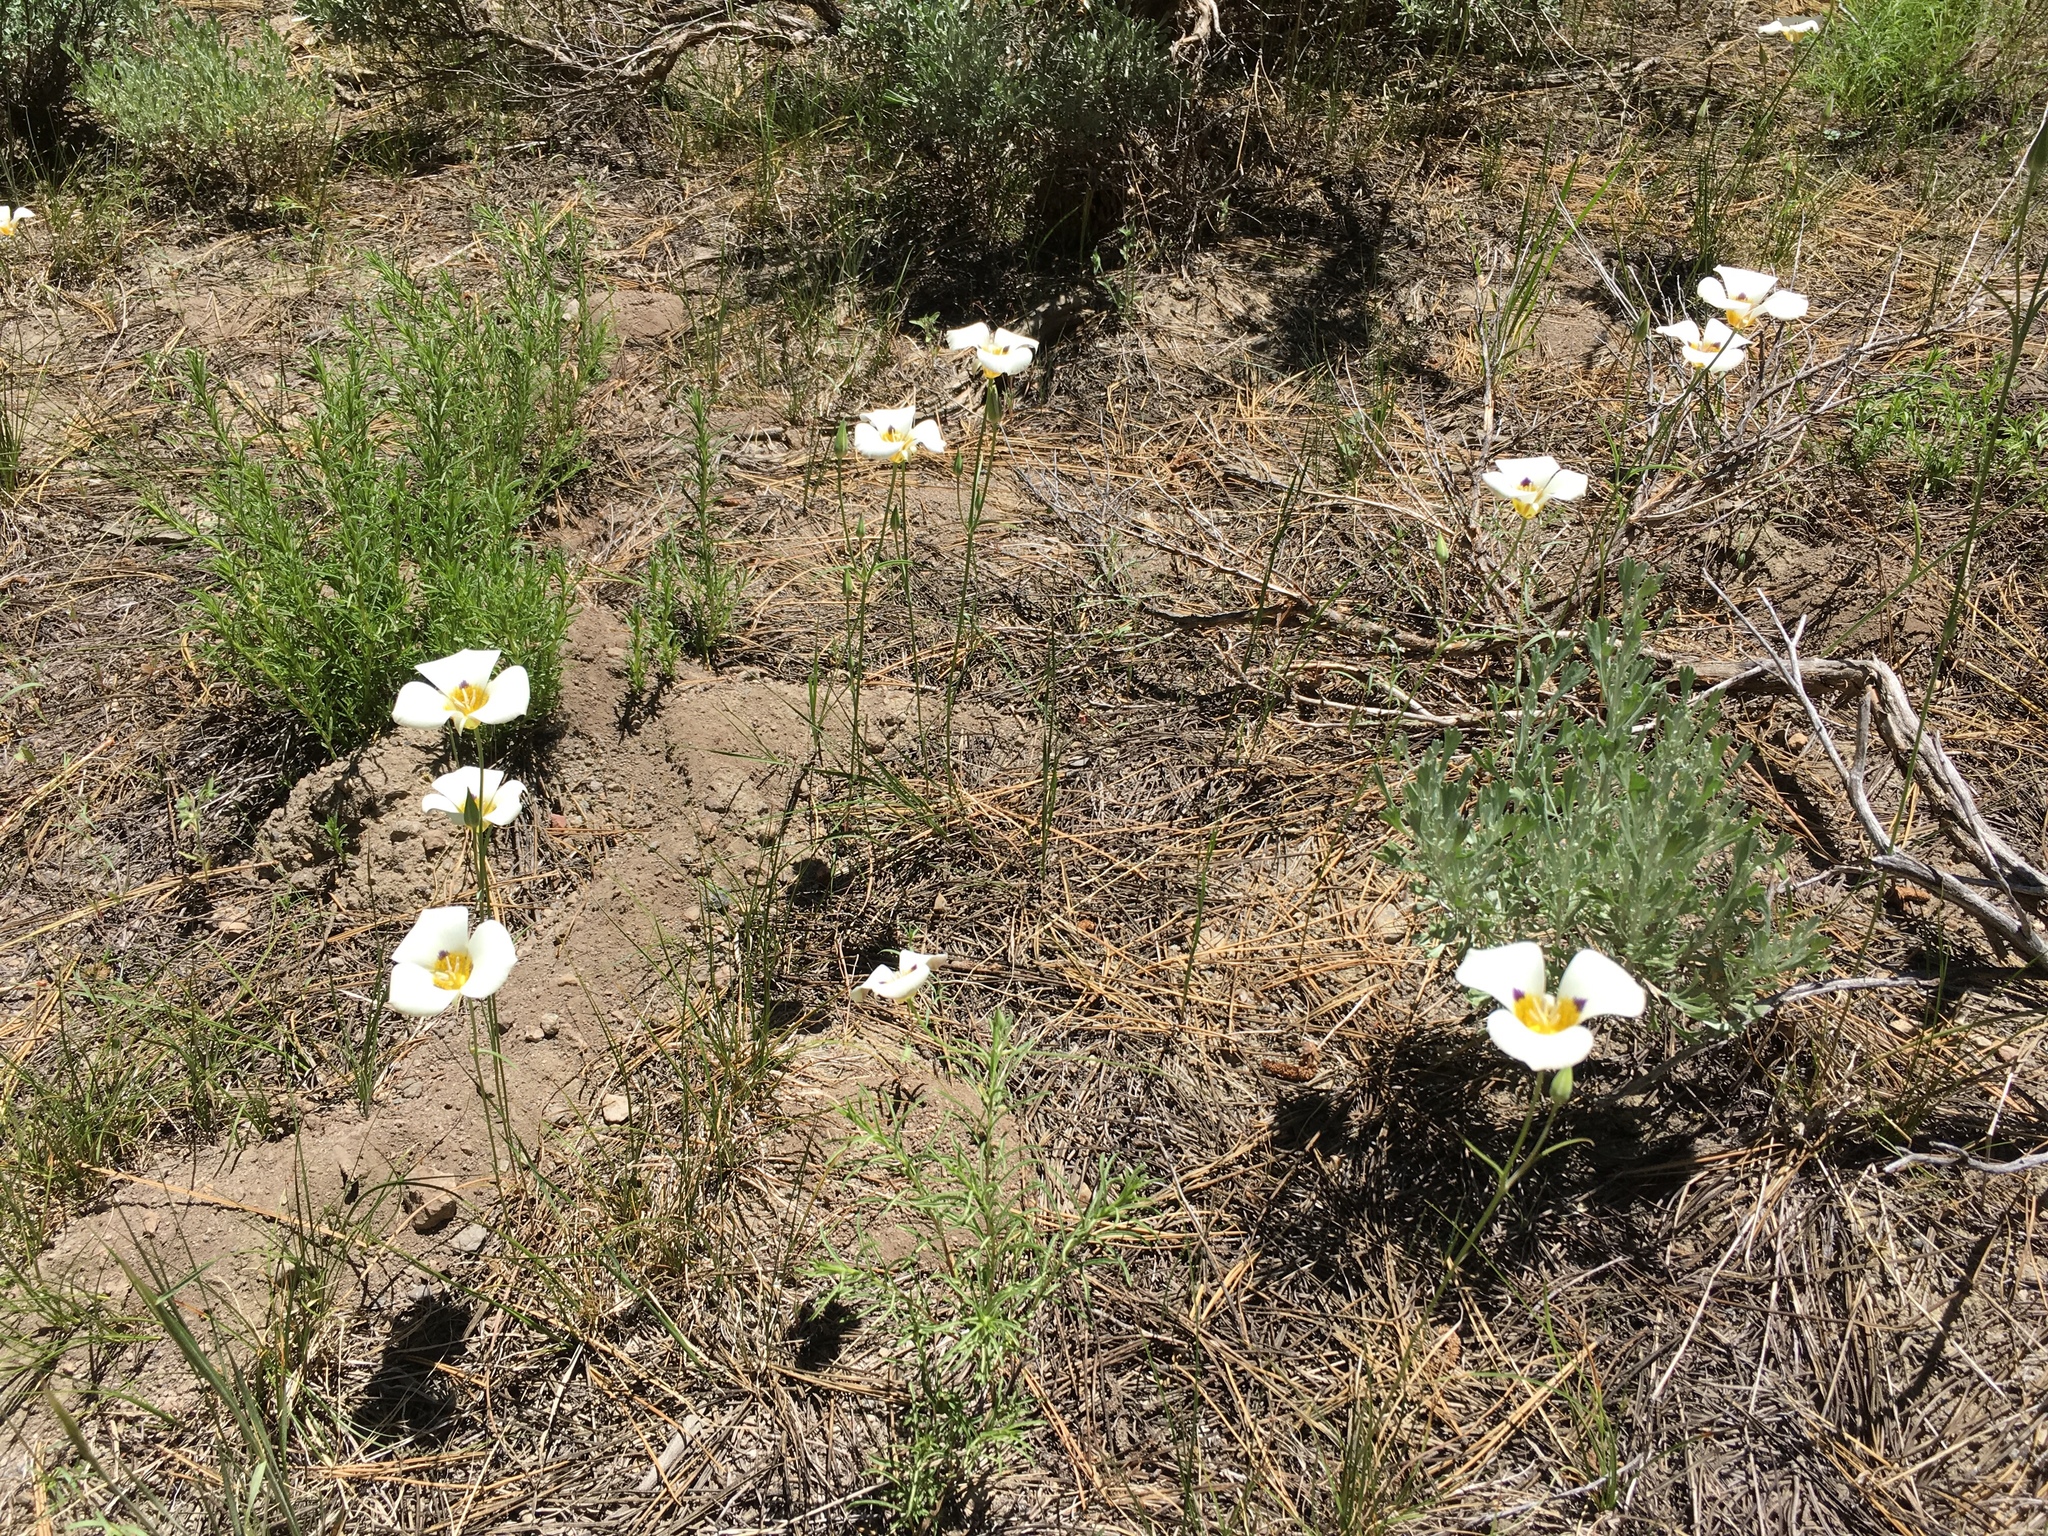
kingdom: Plantae
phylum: Tracheophyta
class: Liliopsida
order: Liliales
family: Liliaceae
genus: Calochortus
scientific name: Calochortus leichtlinii
